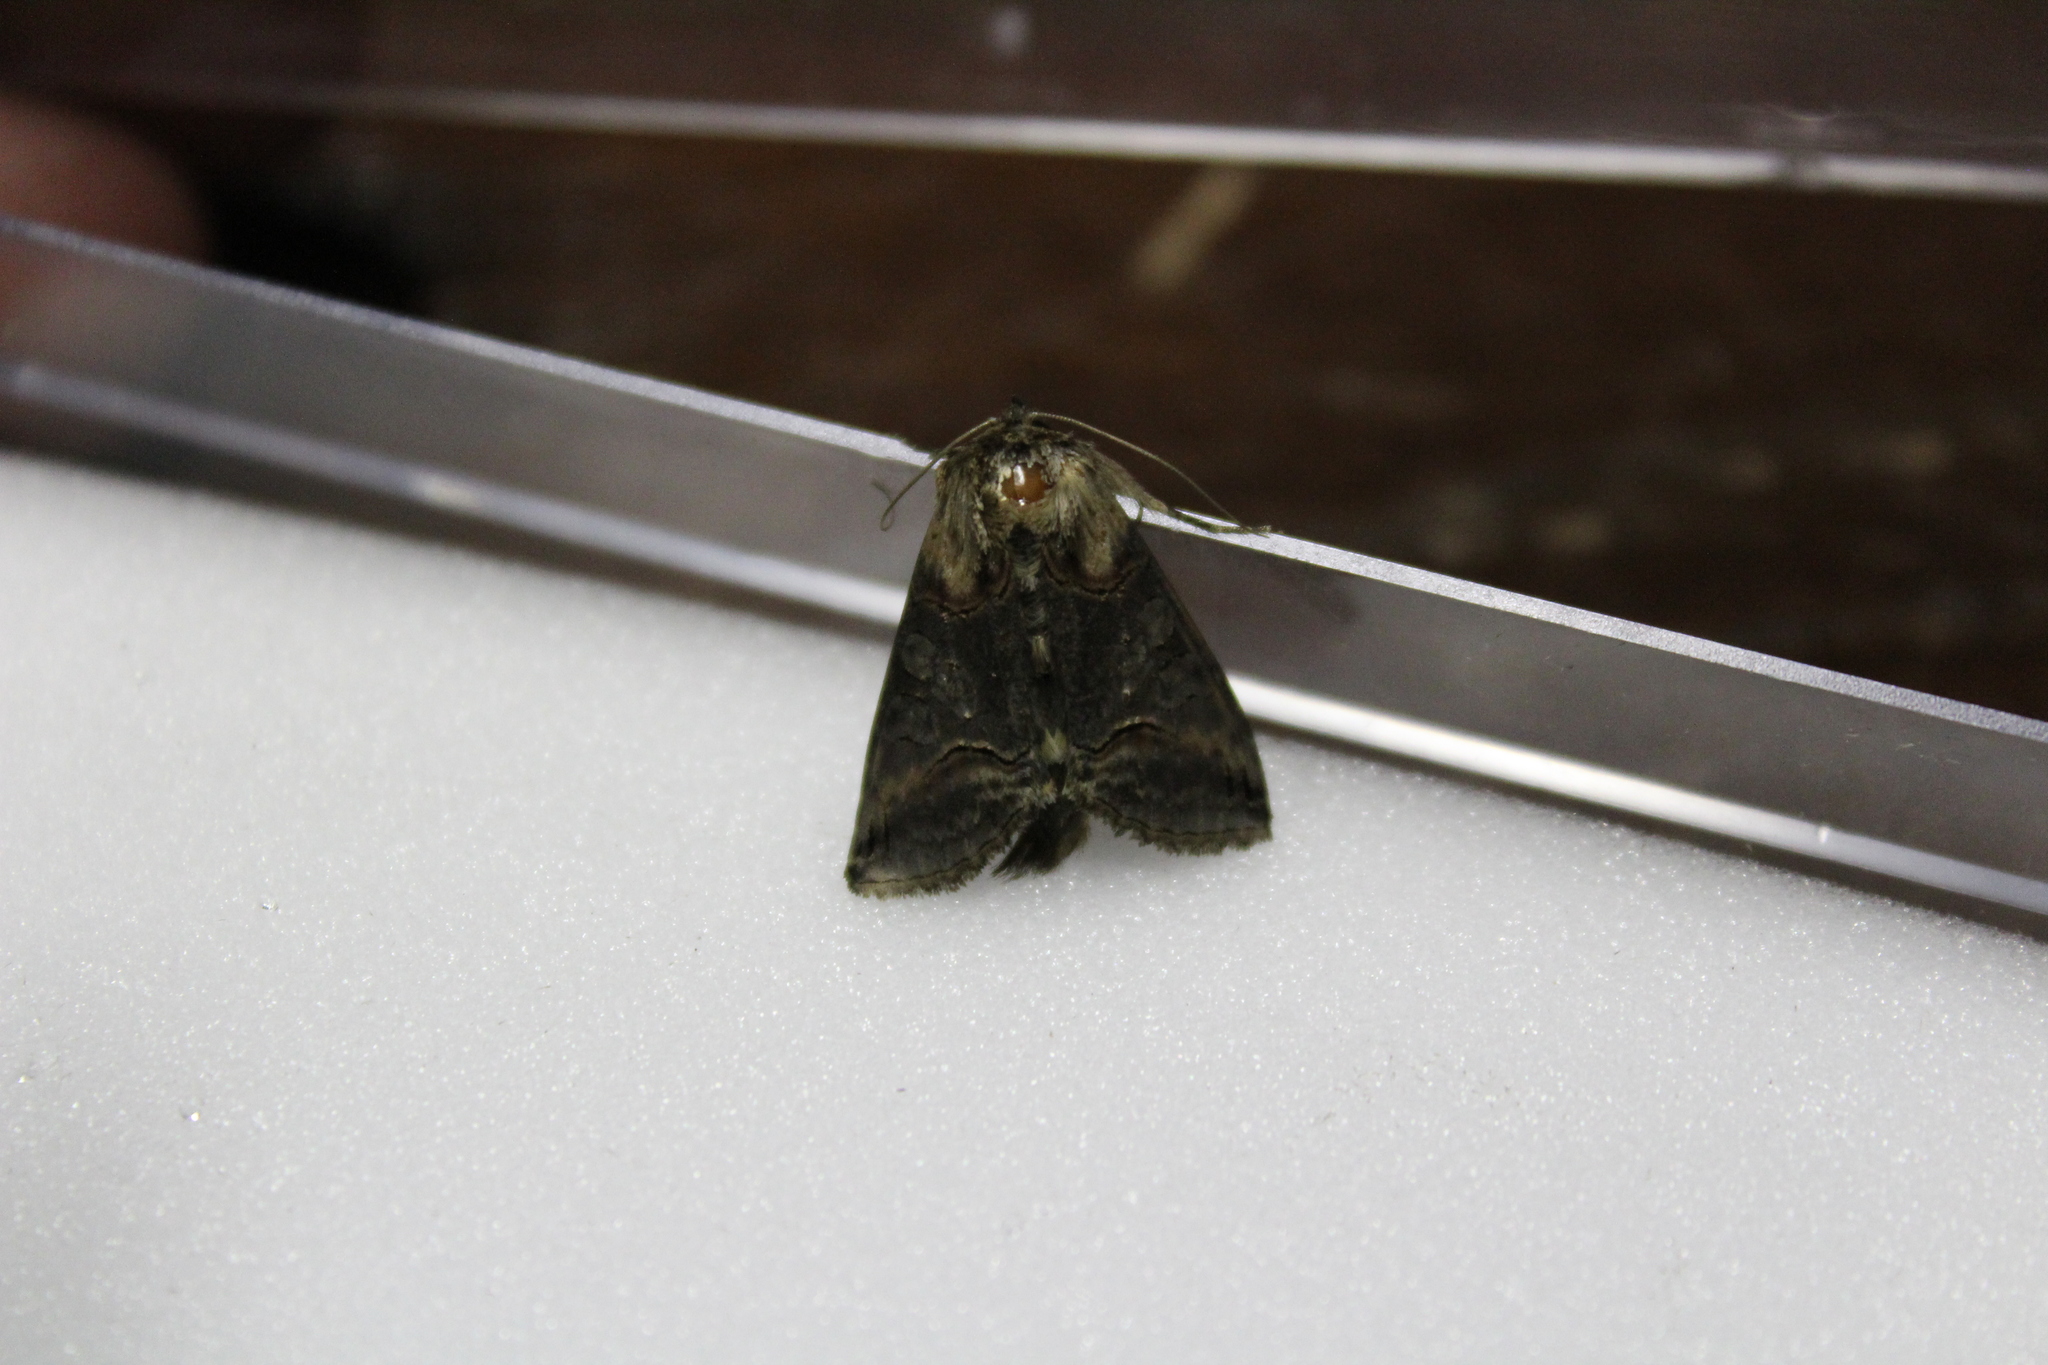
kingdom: Animalia
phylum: Arthropoda
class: Insecta
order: Lepidoptera
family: Noctuidae
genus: Abrostola
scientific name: Abrostola triplasia
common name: Dark spectacle
